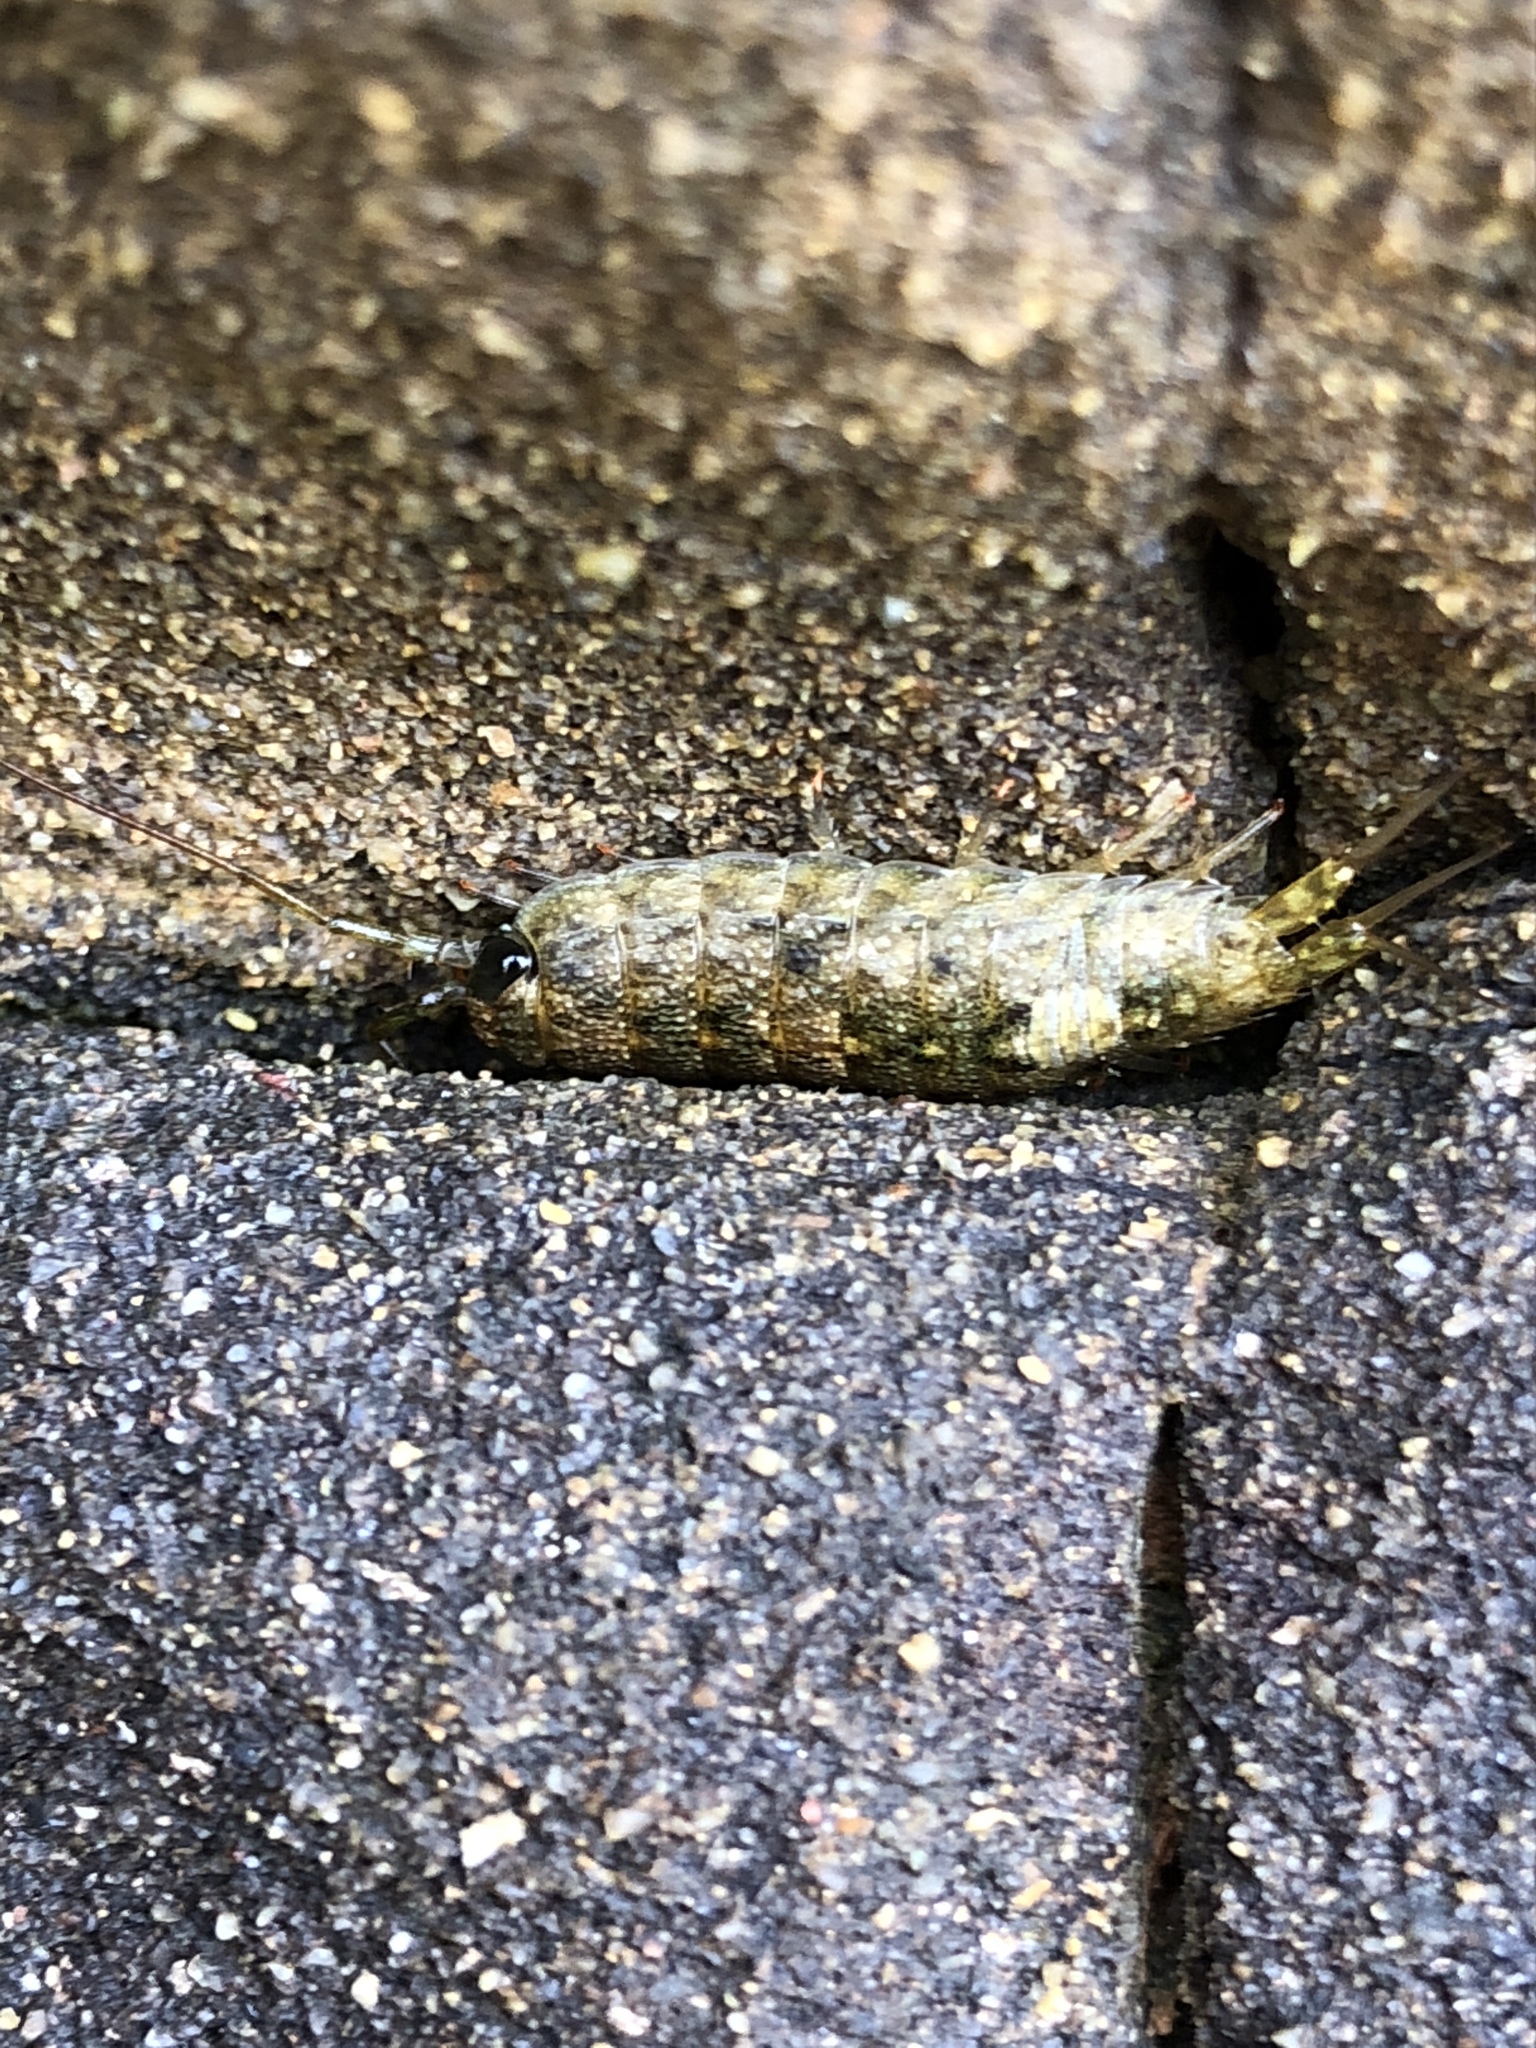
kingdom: Animalia
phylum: Arthropoda
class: Malacostraca
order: Isopoda
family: Ligiidae
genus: Ligia
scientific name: Ligia occidentalis
